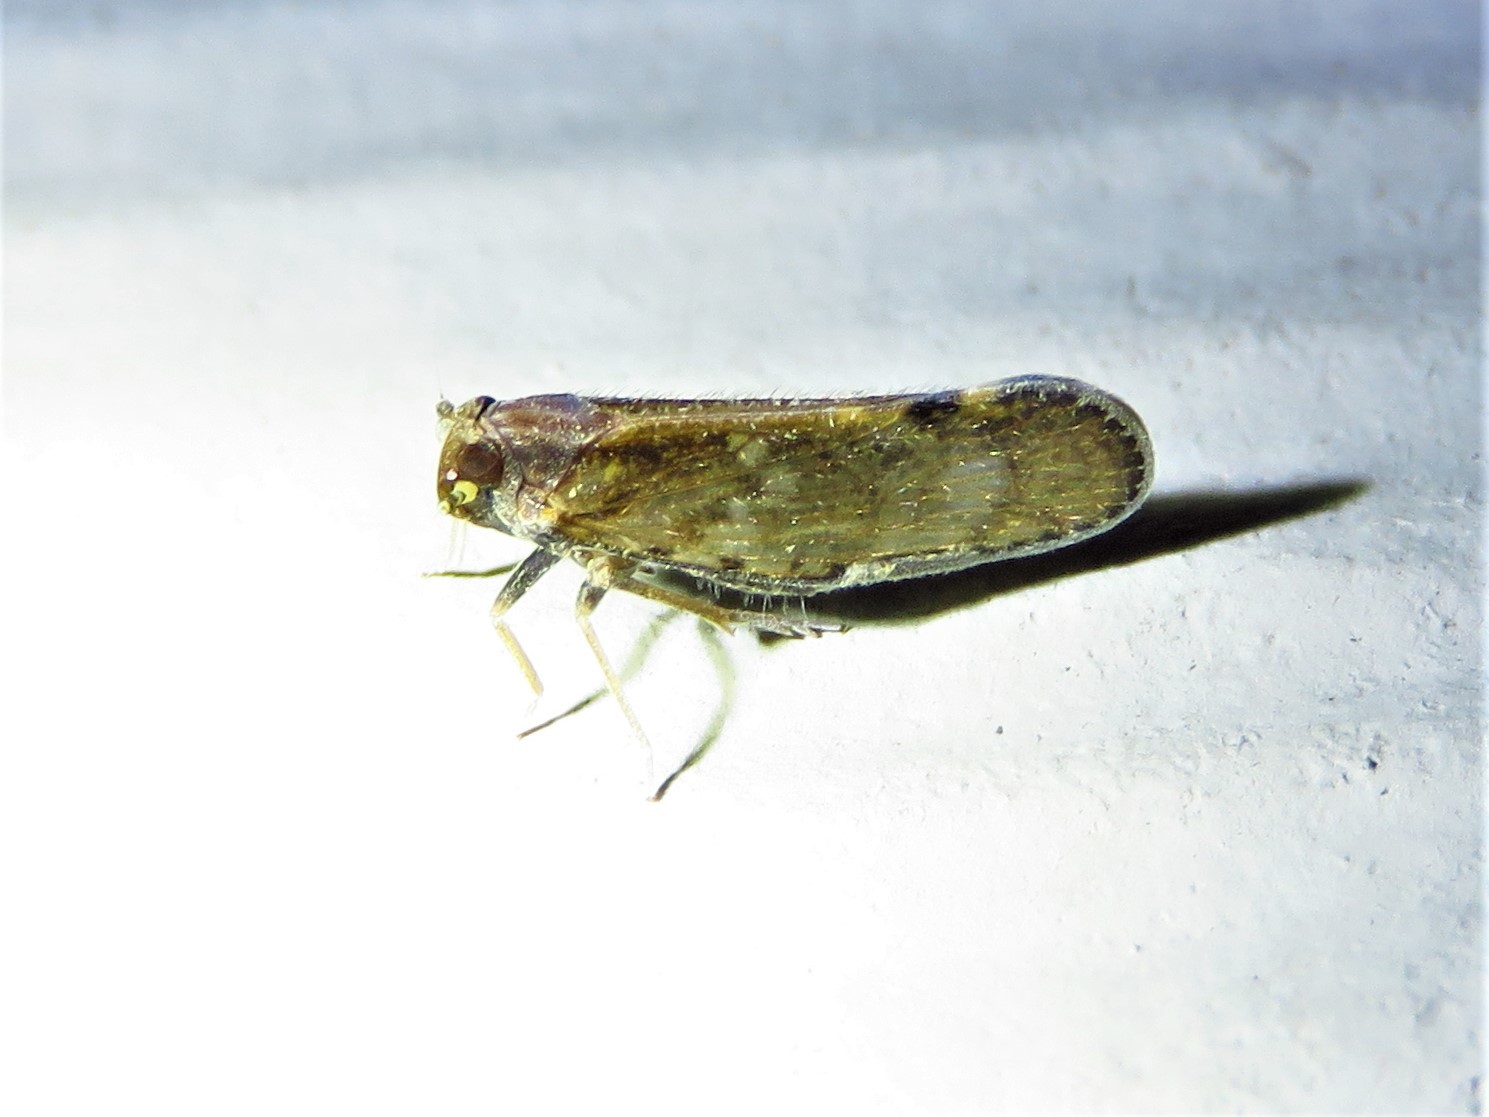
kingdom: Animalia
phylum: Arthropoda
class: Insecta
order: Hemiptera
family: Cixiidae
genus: Pintalia
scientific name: Pintalia vibex
